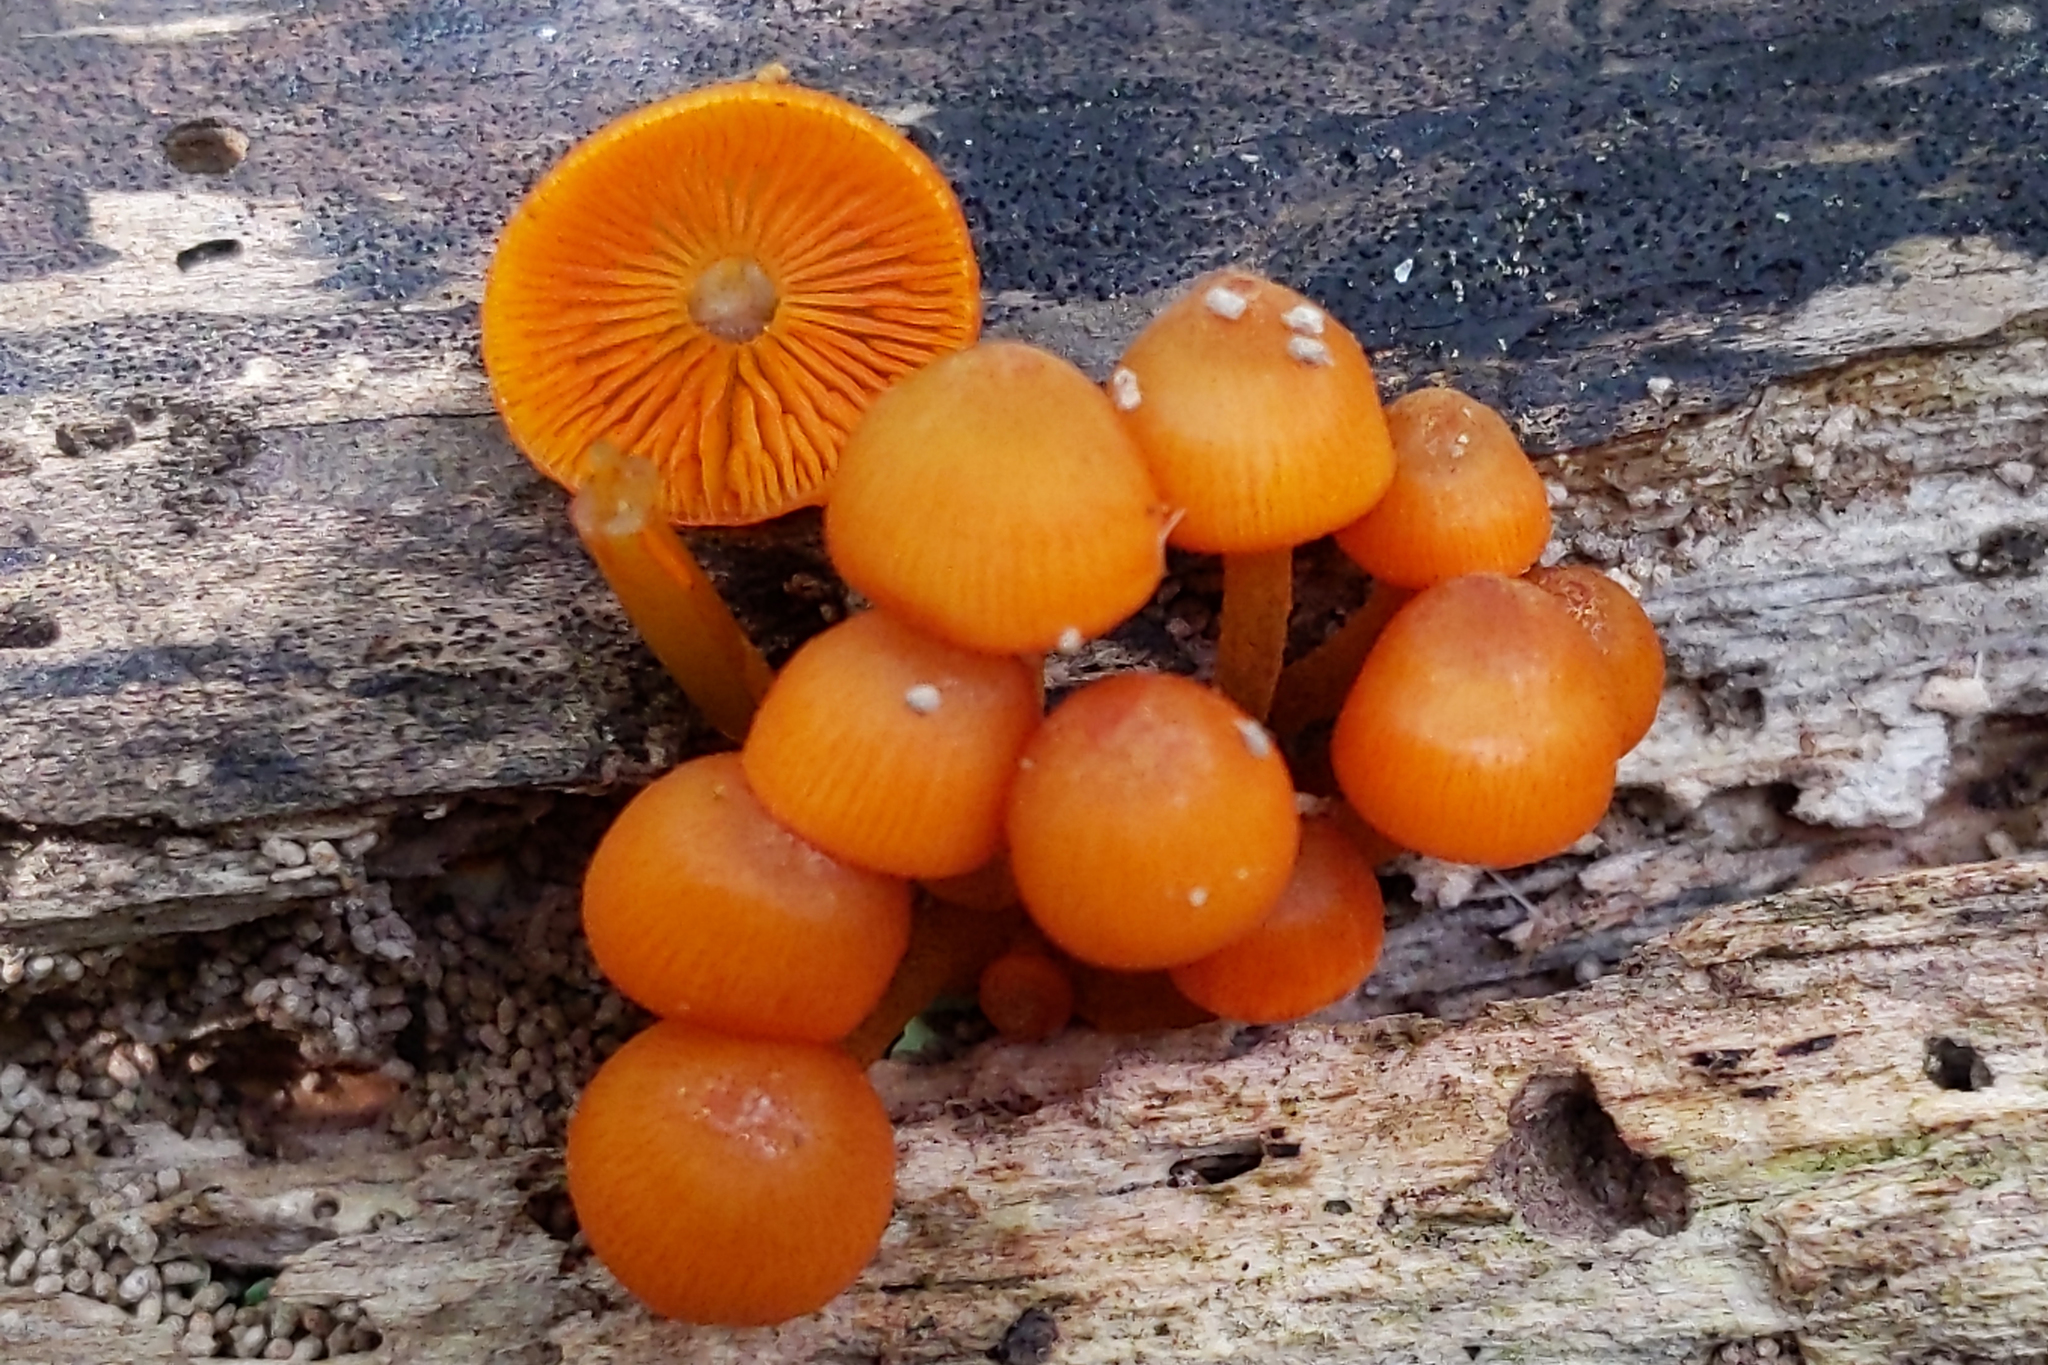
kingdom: Fungi
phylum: Basidiomycota
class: Agaricomycetes
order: Agaricales
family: Mycenaceae
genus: Mycena
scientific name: Mycena leaiana
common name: Orange mycena
